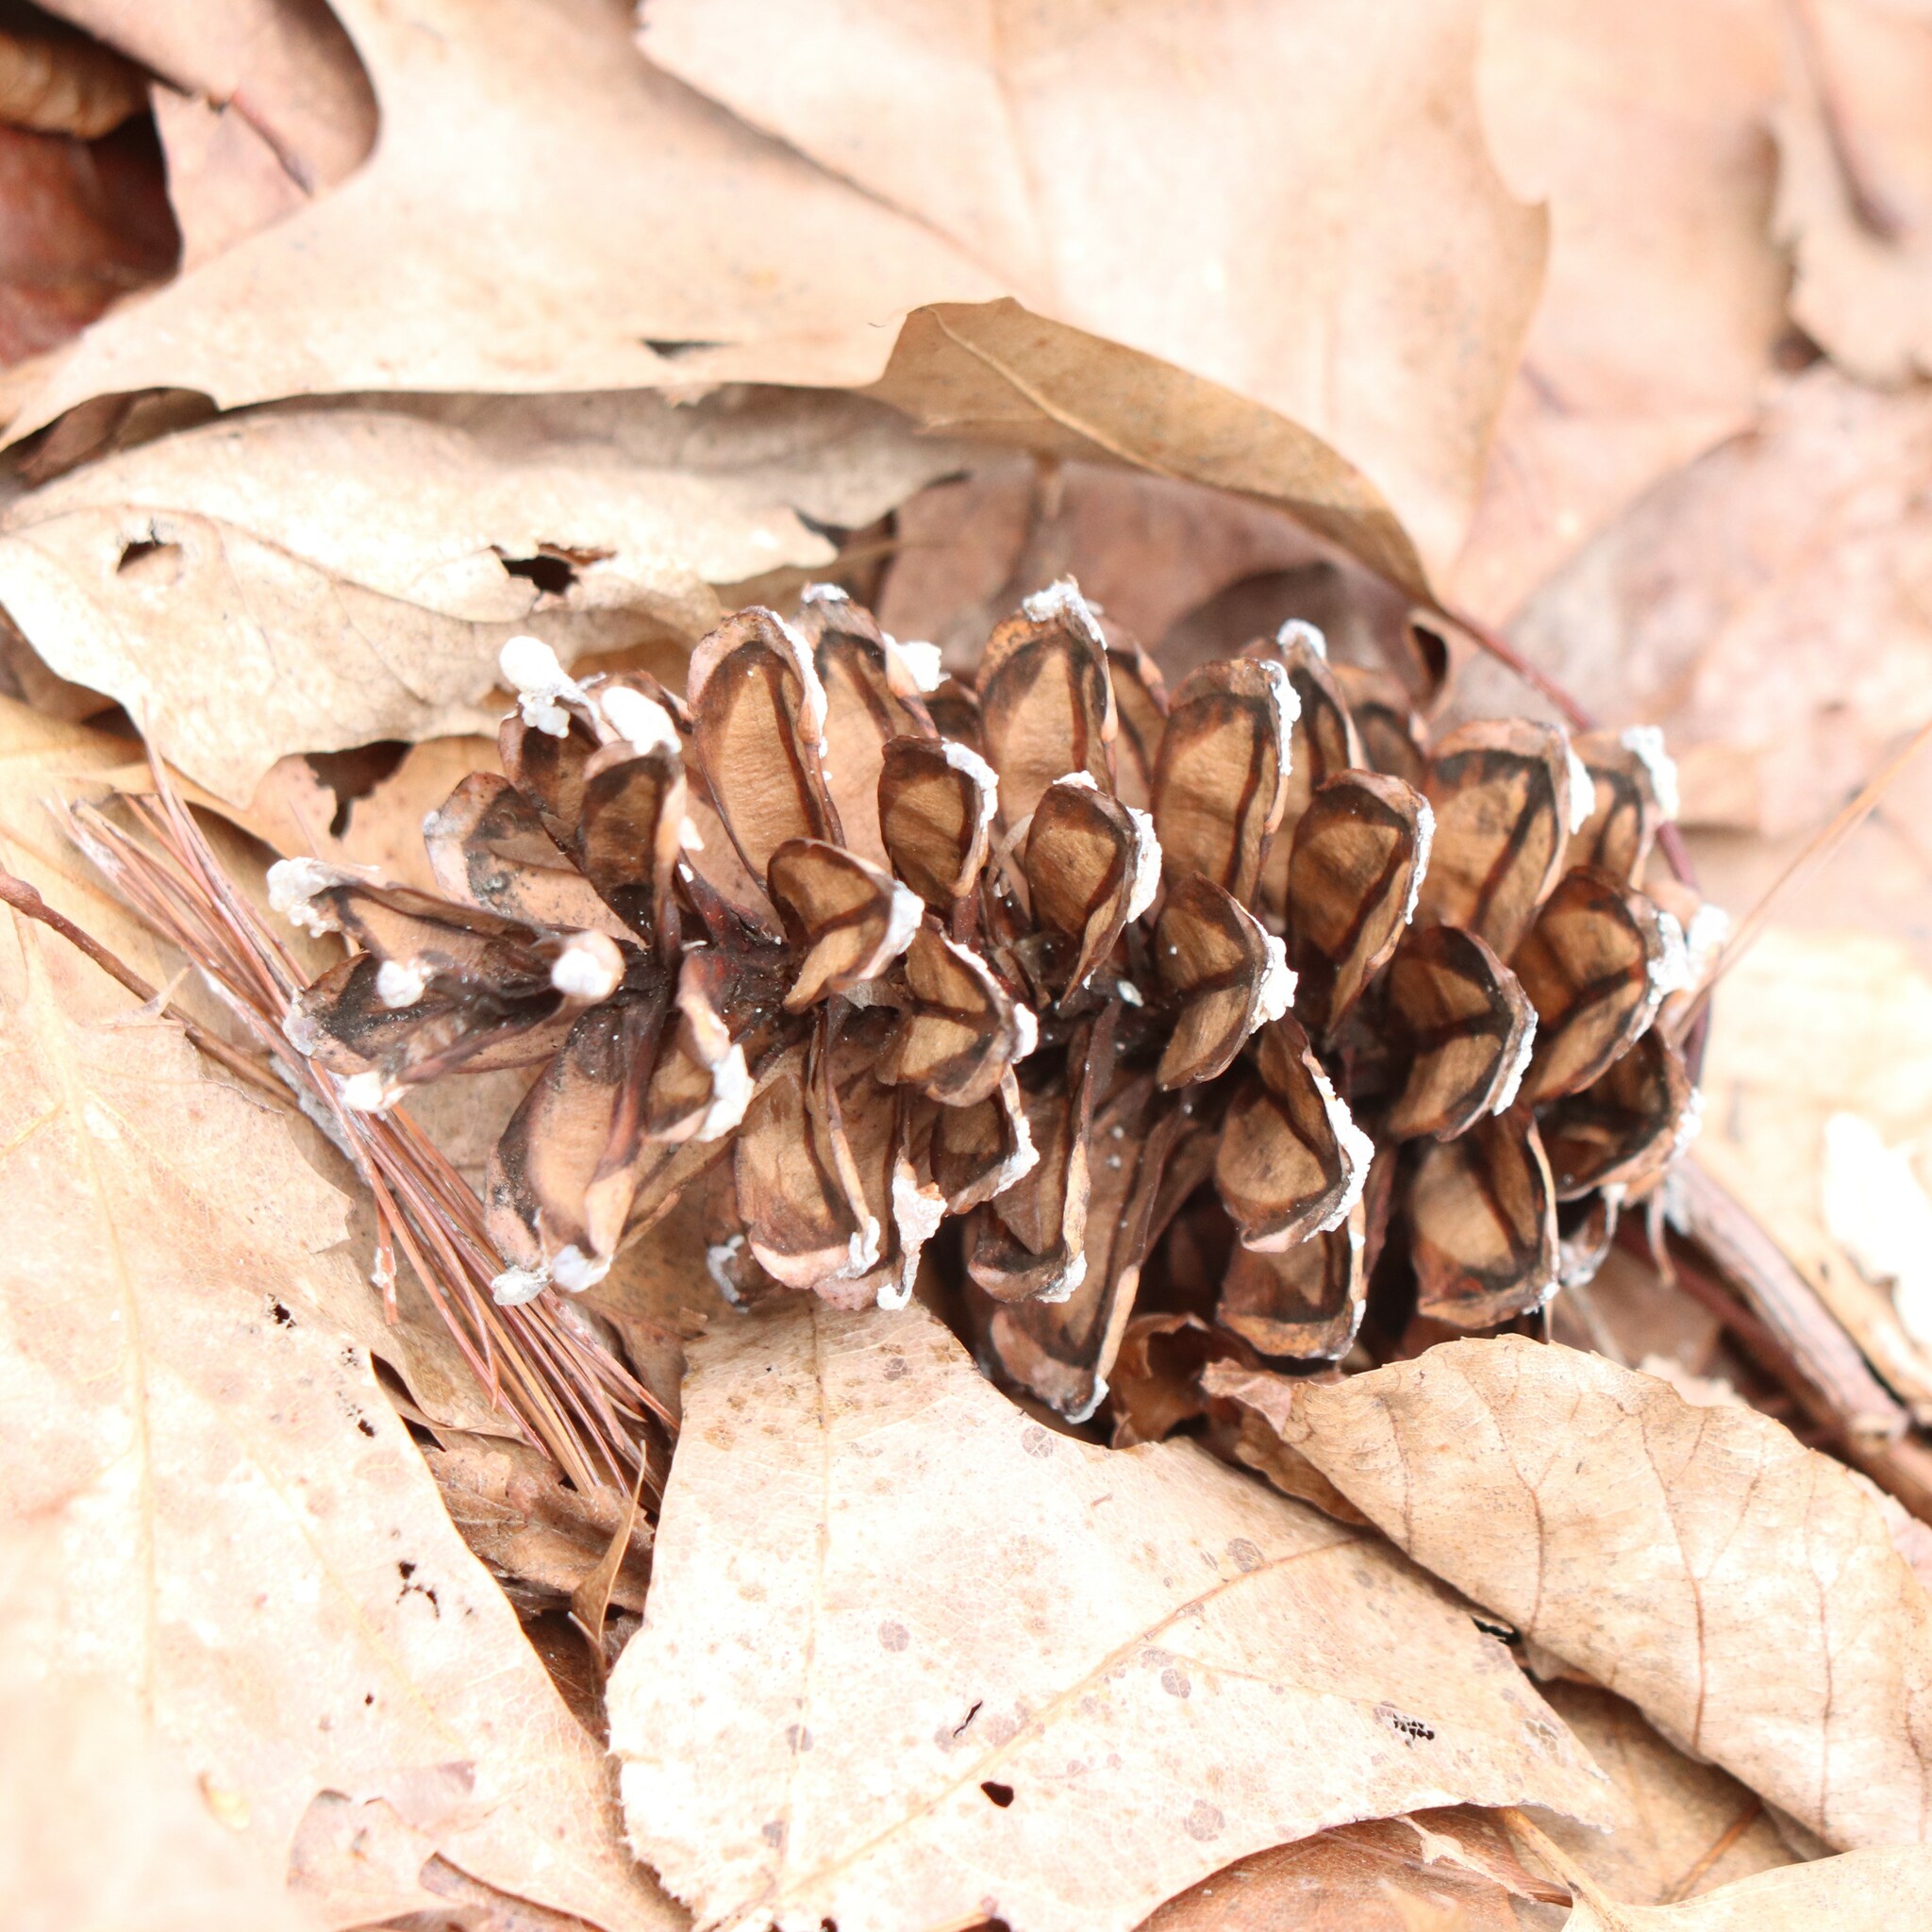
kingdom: Plantae
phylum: Tracheophyta
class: Pinopsida
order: Pinales
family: Pinaceae
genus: Pinus
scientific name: Pinus strobus
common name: Weymouth pine
